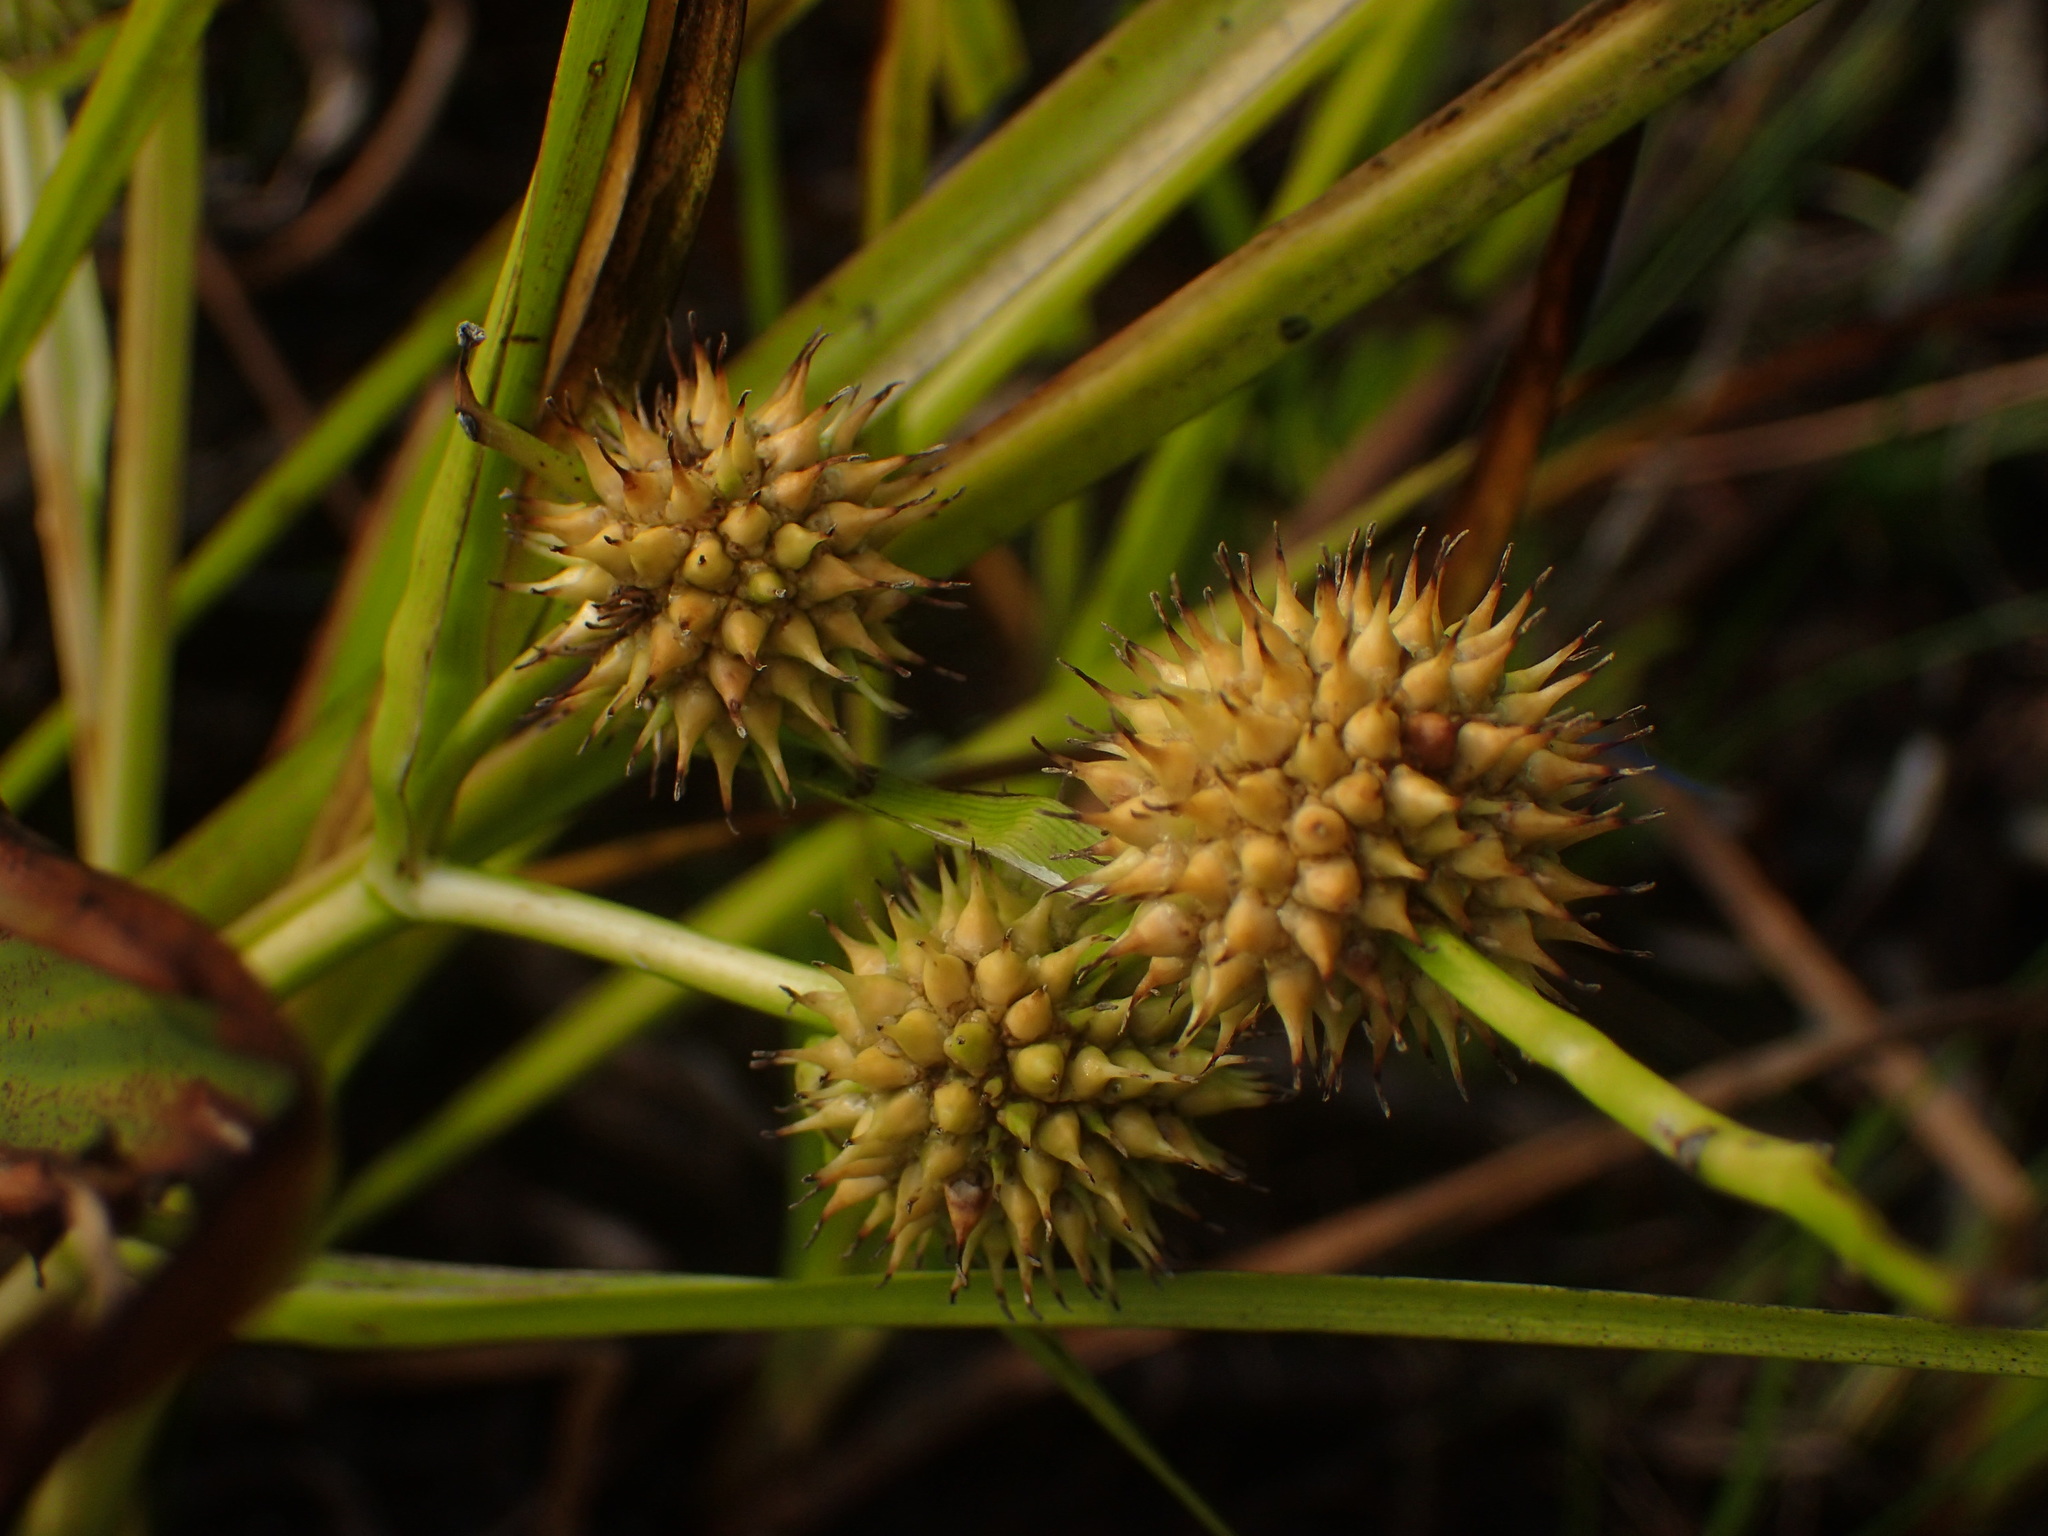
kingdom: Plantae
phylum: Tracheophyta
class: Liliopsida
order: Poales
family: Typhaceae
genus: Sparganium
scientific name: Sparganium americanum
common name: American burreed
